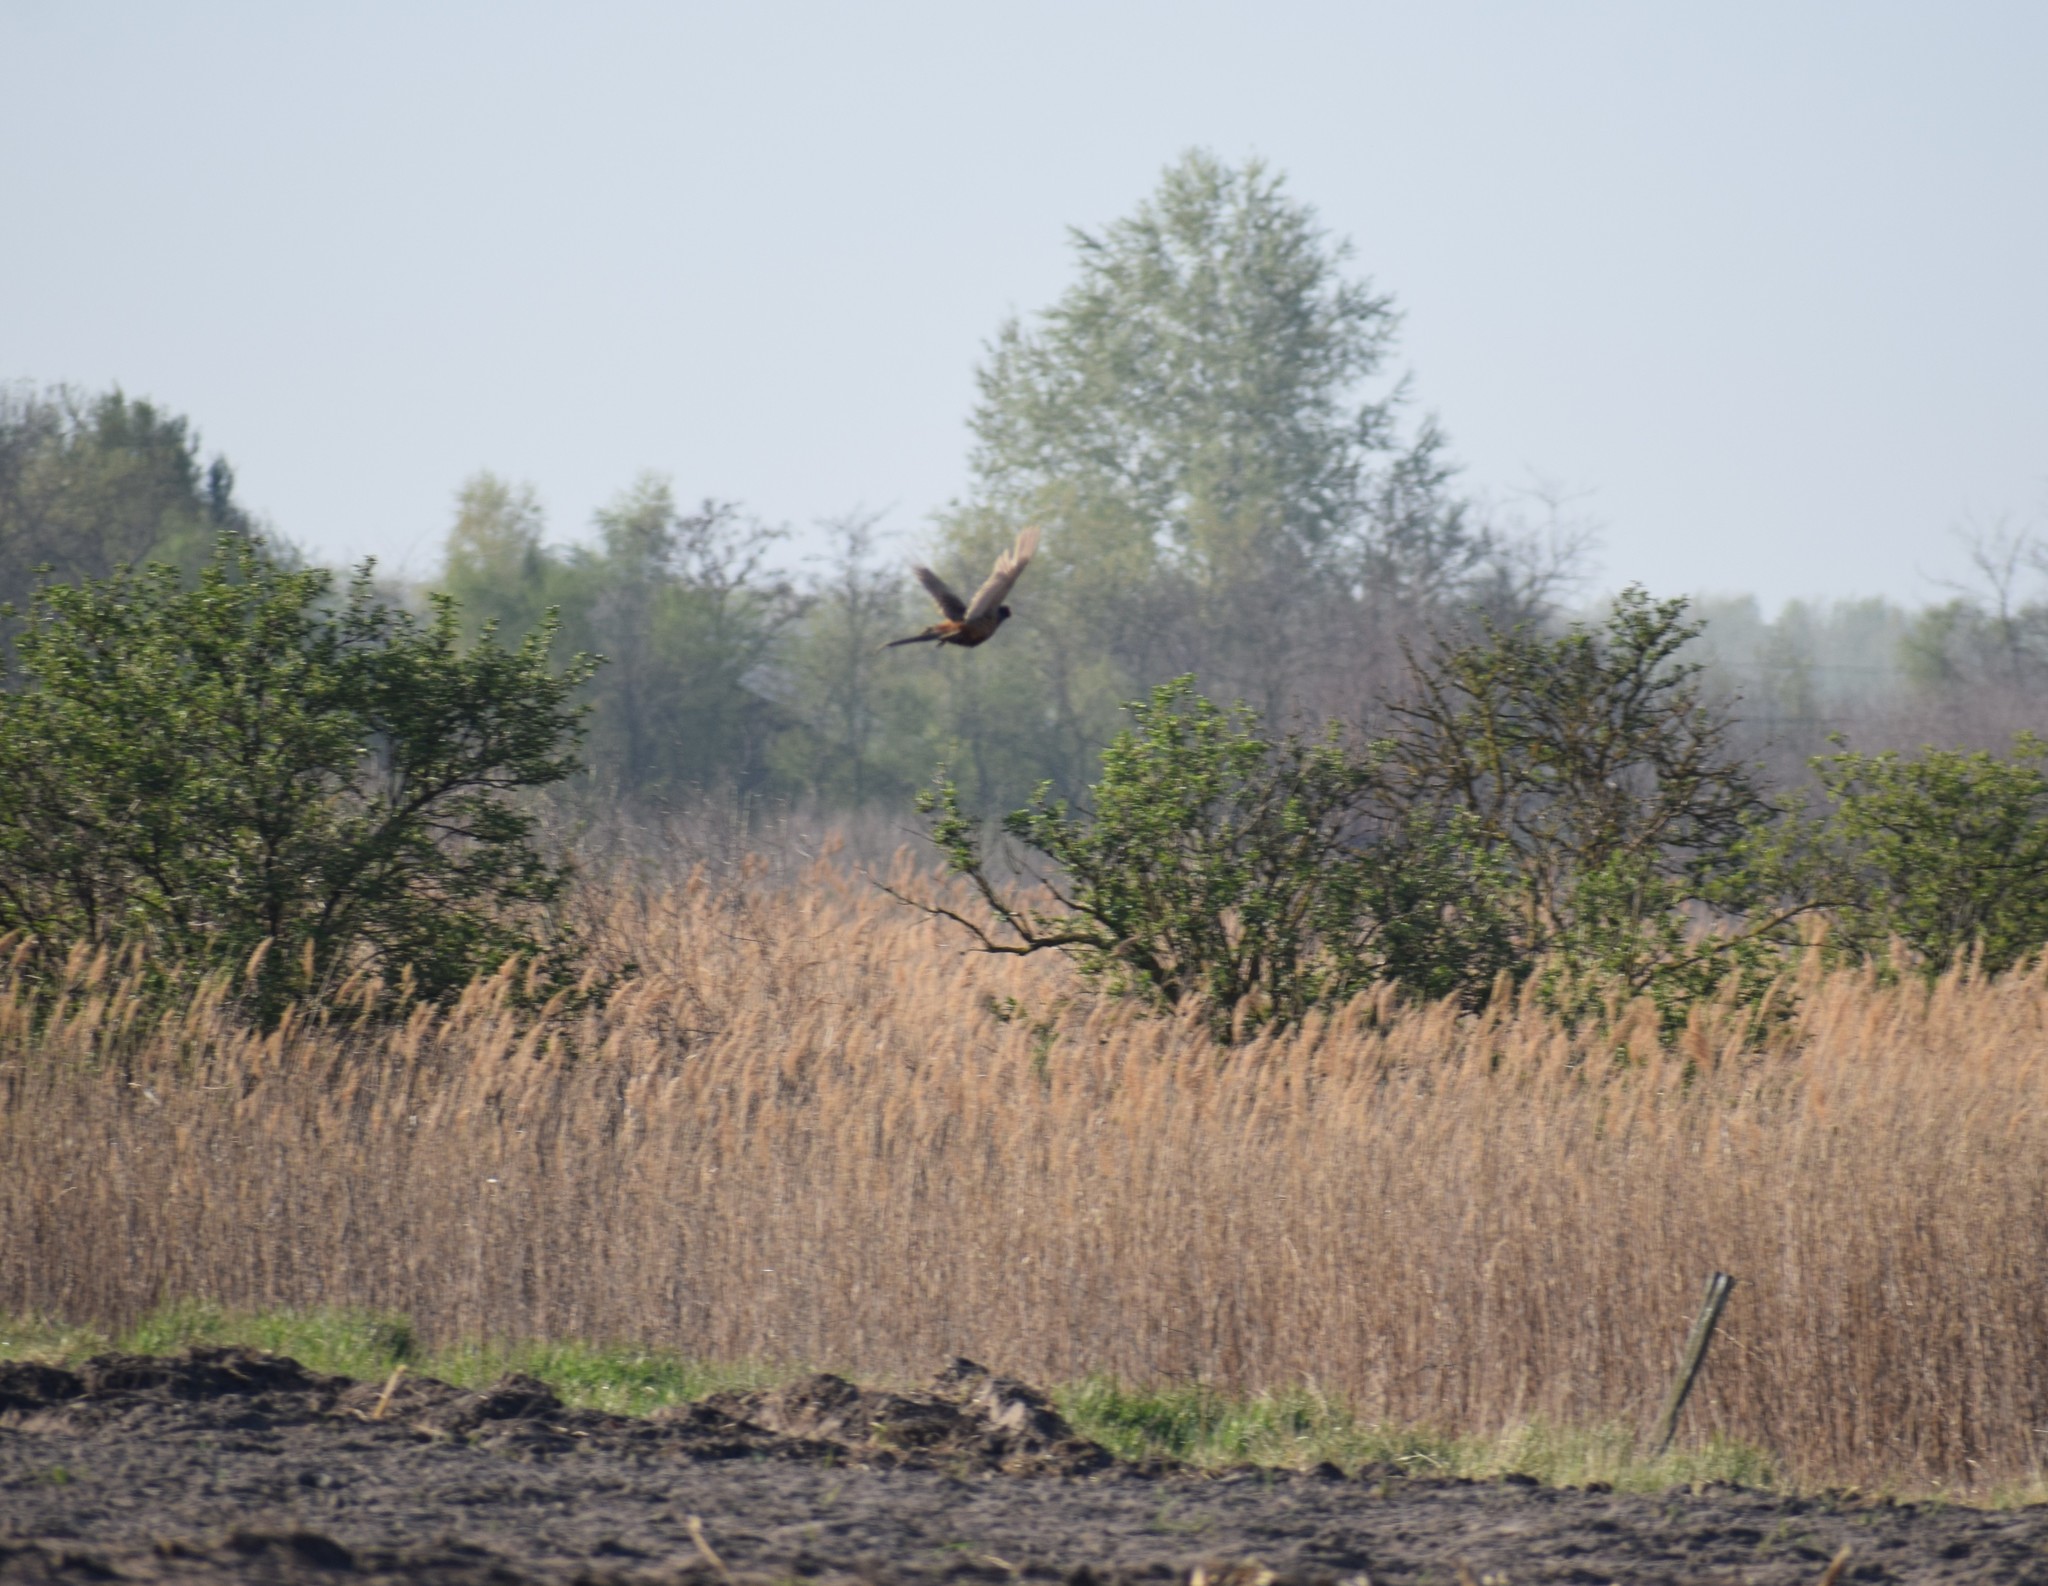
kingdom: Animalia
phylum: Chordata
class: Aves
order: Galliformes
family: Phasianidae
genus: Phasianus
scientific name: Phasianus colchicus
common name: Common pheasant
